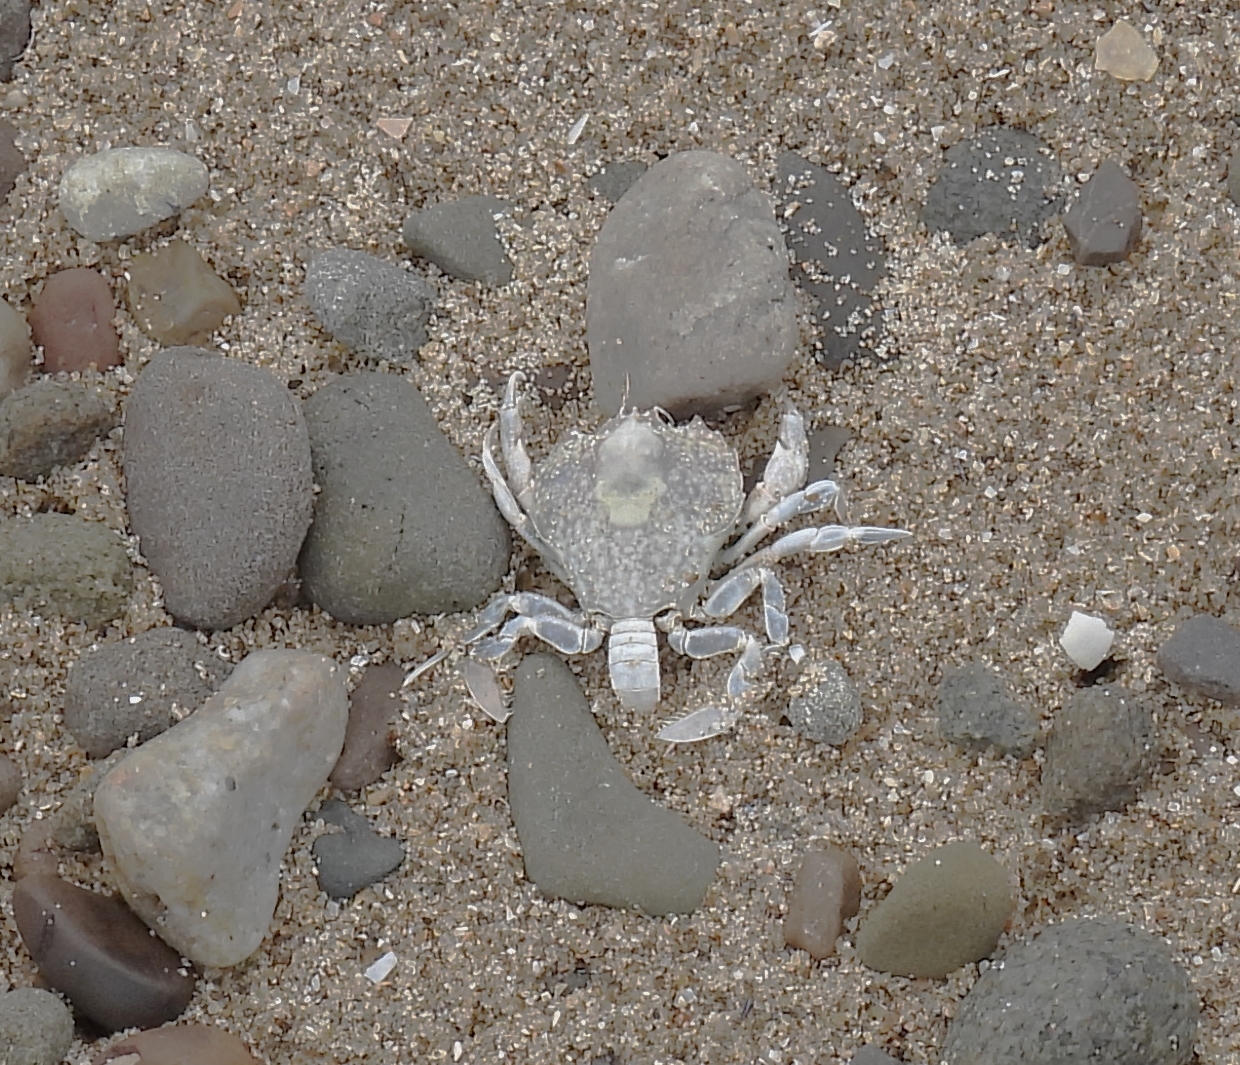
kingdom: Animalia
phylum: Arthropoda
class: Malacostraca
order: Decapoda
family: Carcinidae
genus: Portumnus
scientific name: Portumnus latipes
